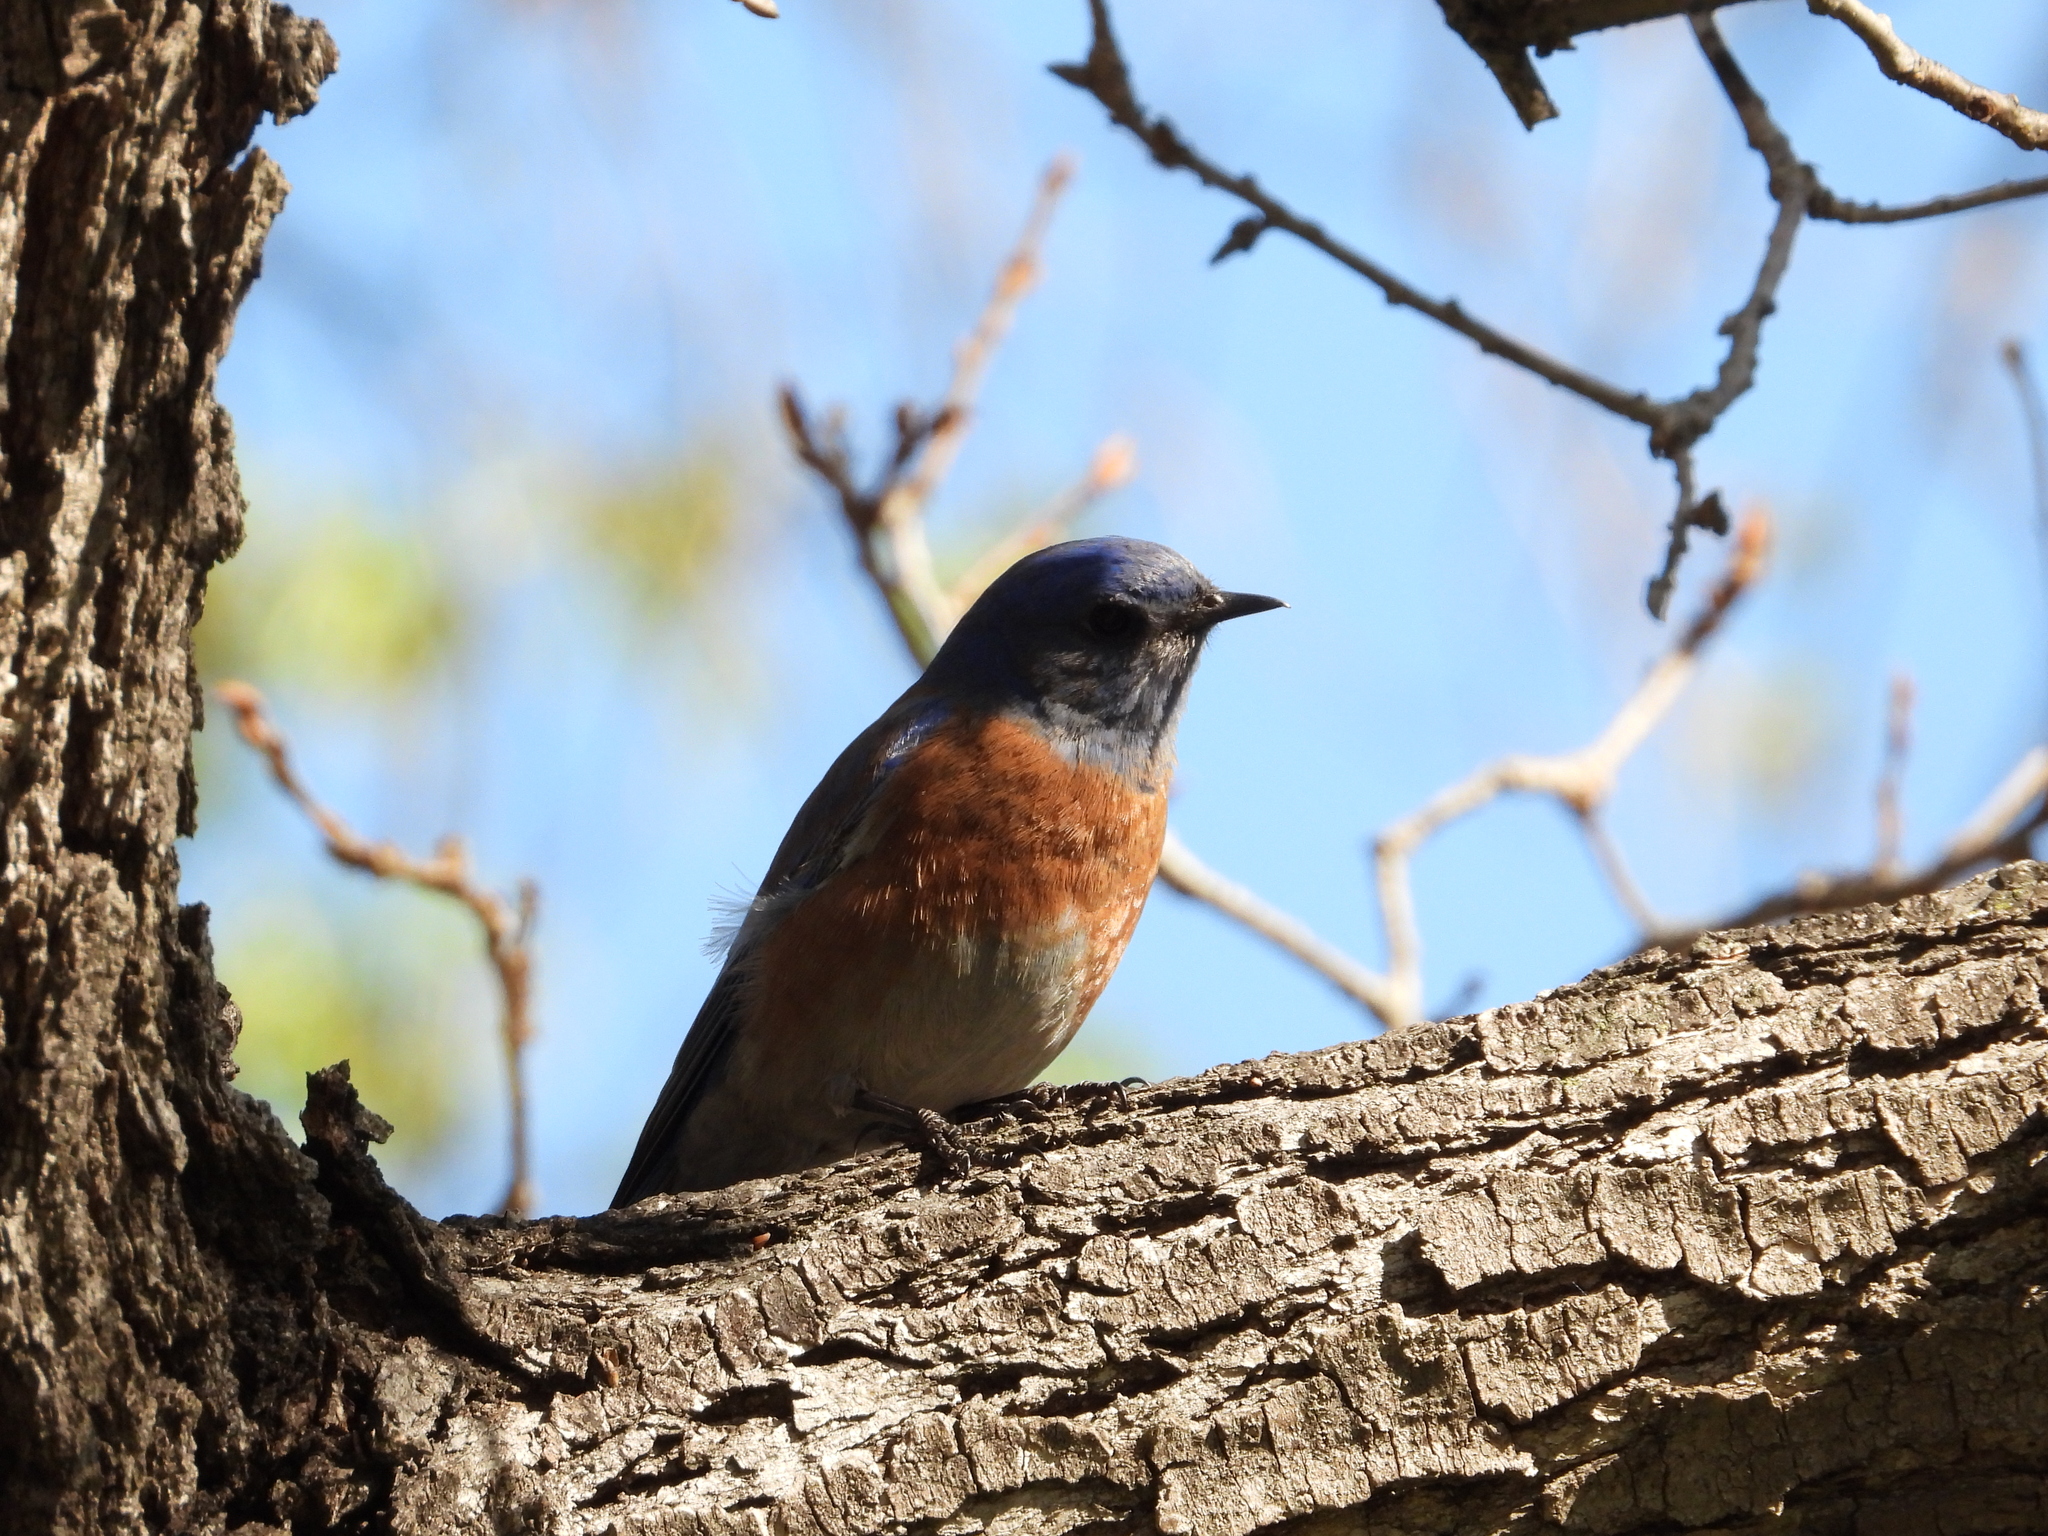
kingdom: Animalia
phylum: Chordata
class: Aves
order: Passeriformes
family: Turdidae
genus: Sialia
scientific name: Sialia mexicana
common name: Western bluebird
